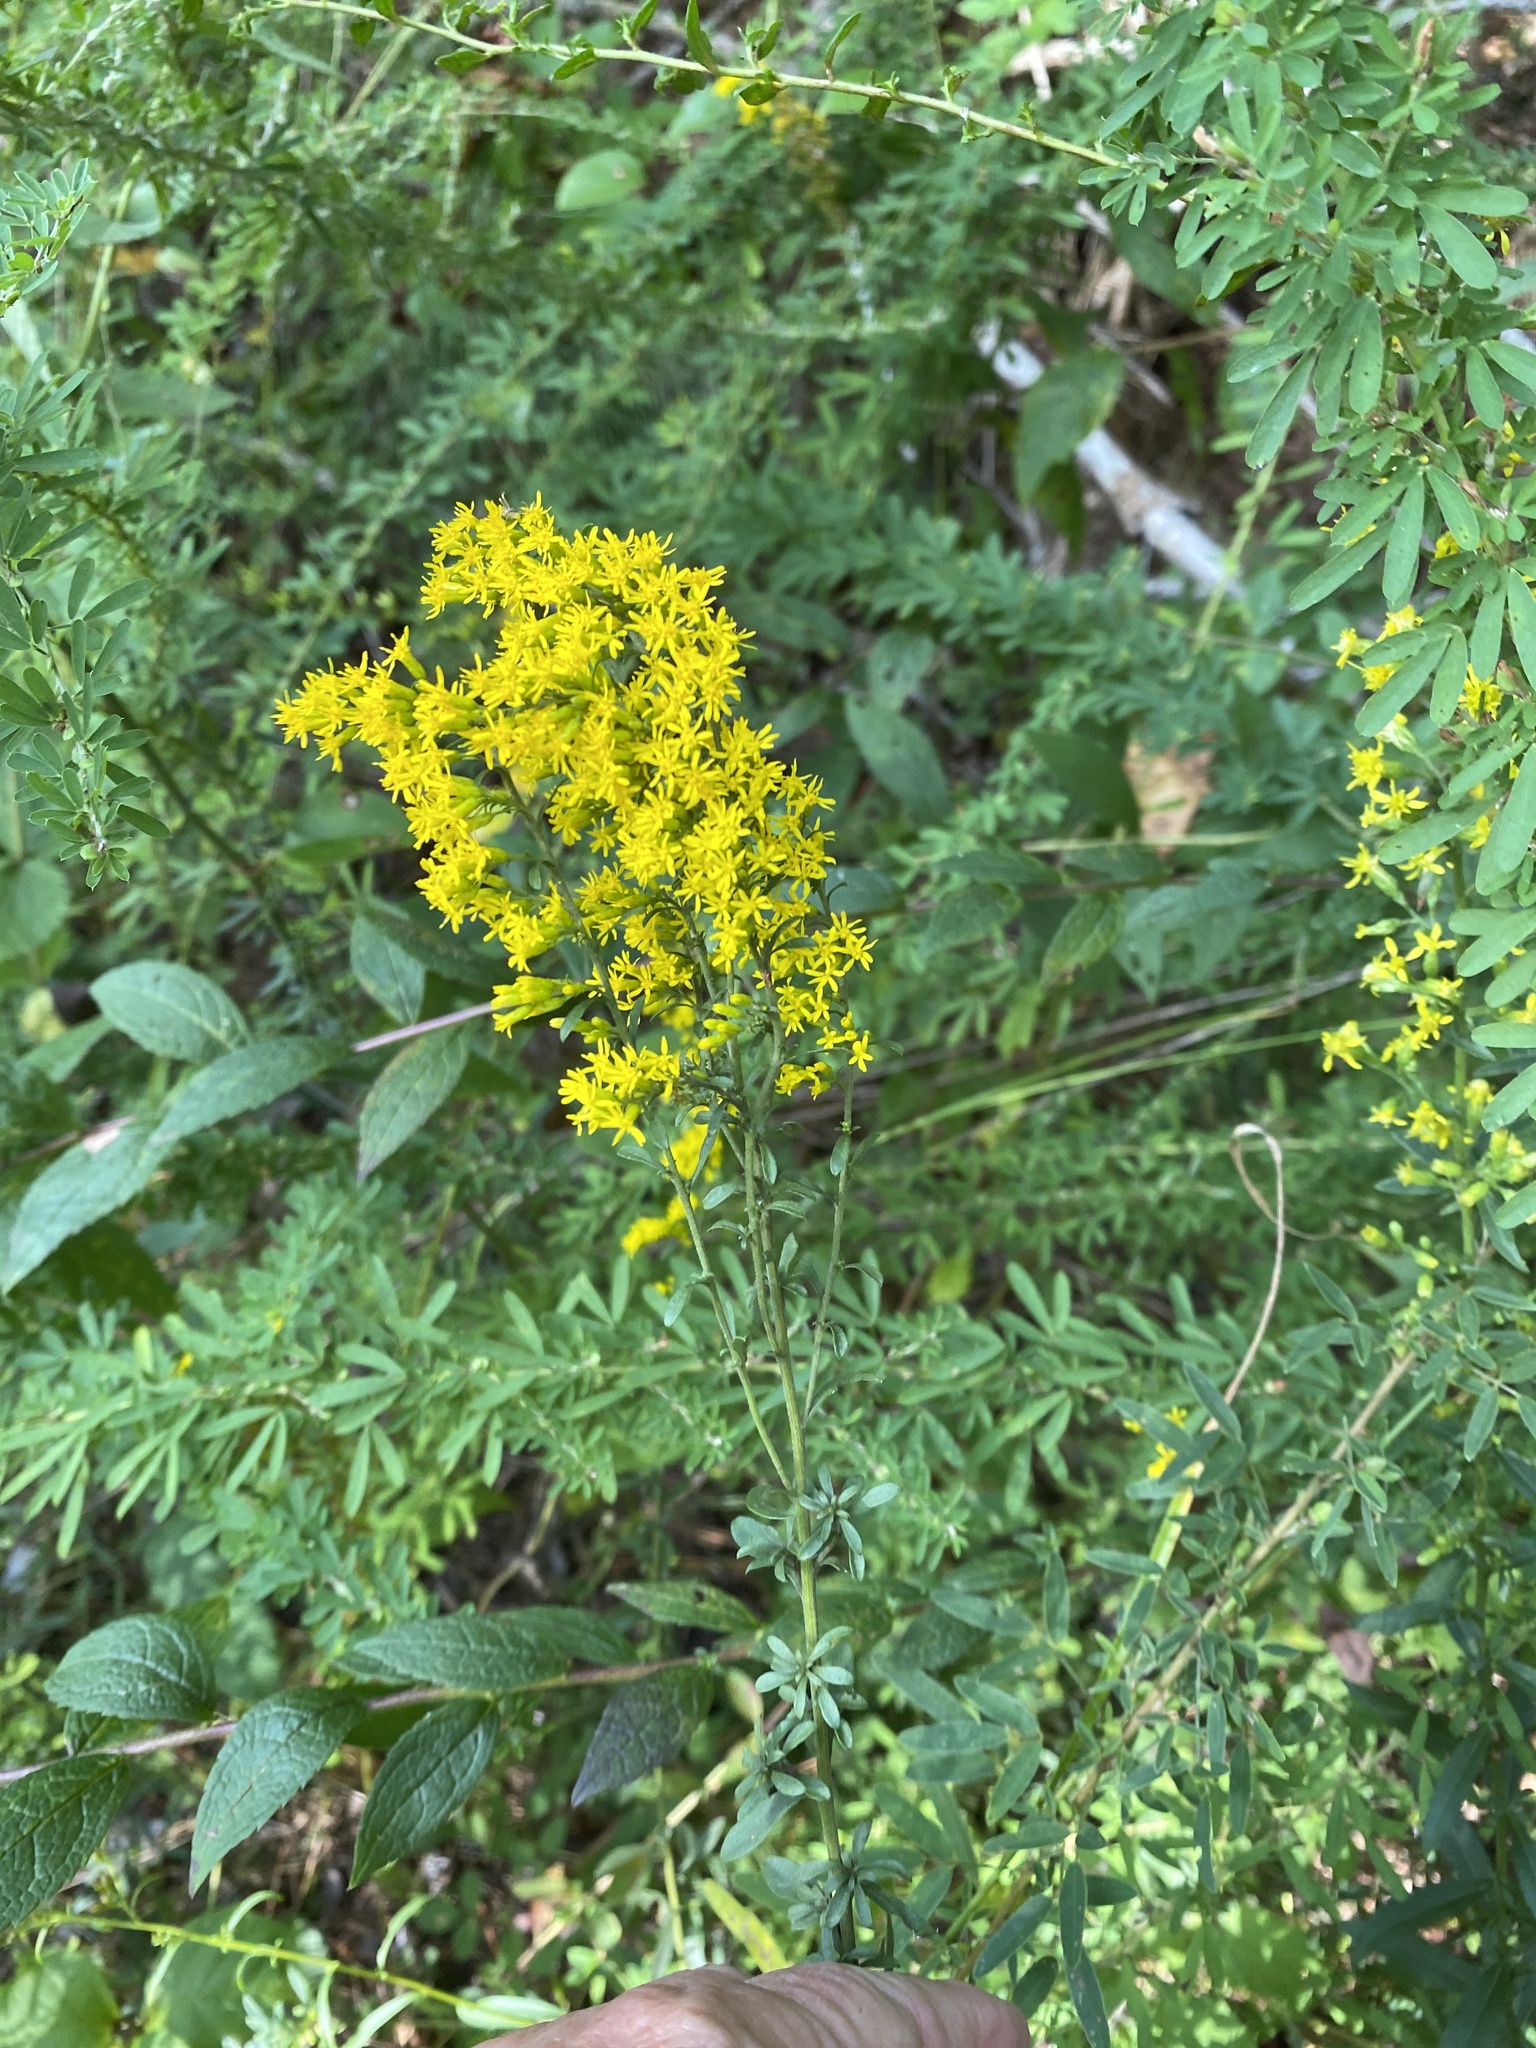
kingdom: Plantae
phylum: Tracheophyta
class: Magnoliopsida
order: Asterales
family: Asteraceae
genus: Solidago
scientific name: Solidago nemoralis
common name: Grey goldenrod
